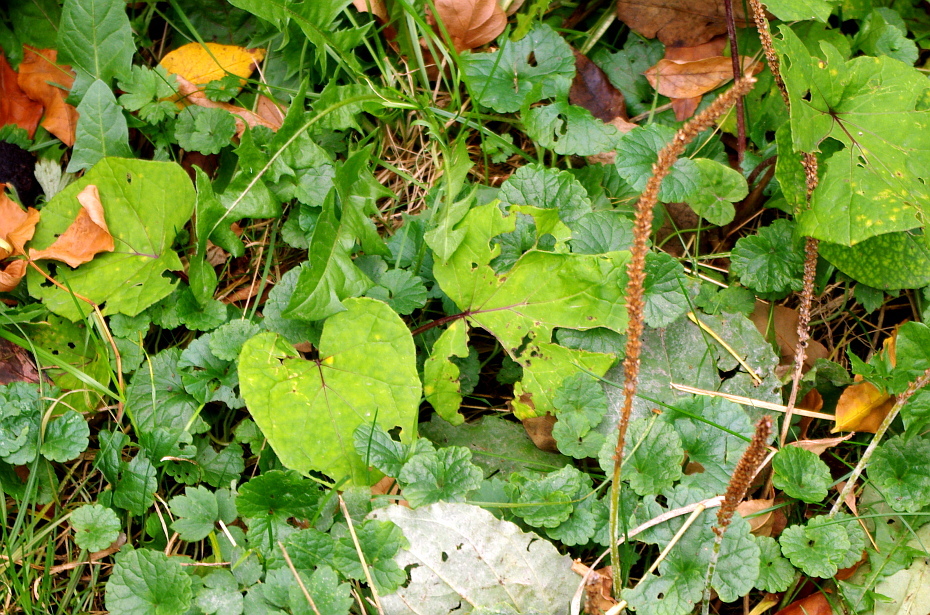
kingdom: Plantae
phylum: Tracheophyta
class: Magnoliopsida
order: Asterales
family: Asteraceae
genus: Tussilago
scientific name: Tussilago farfara
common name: Coltsfoot
